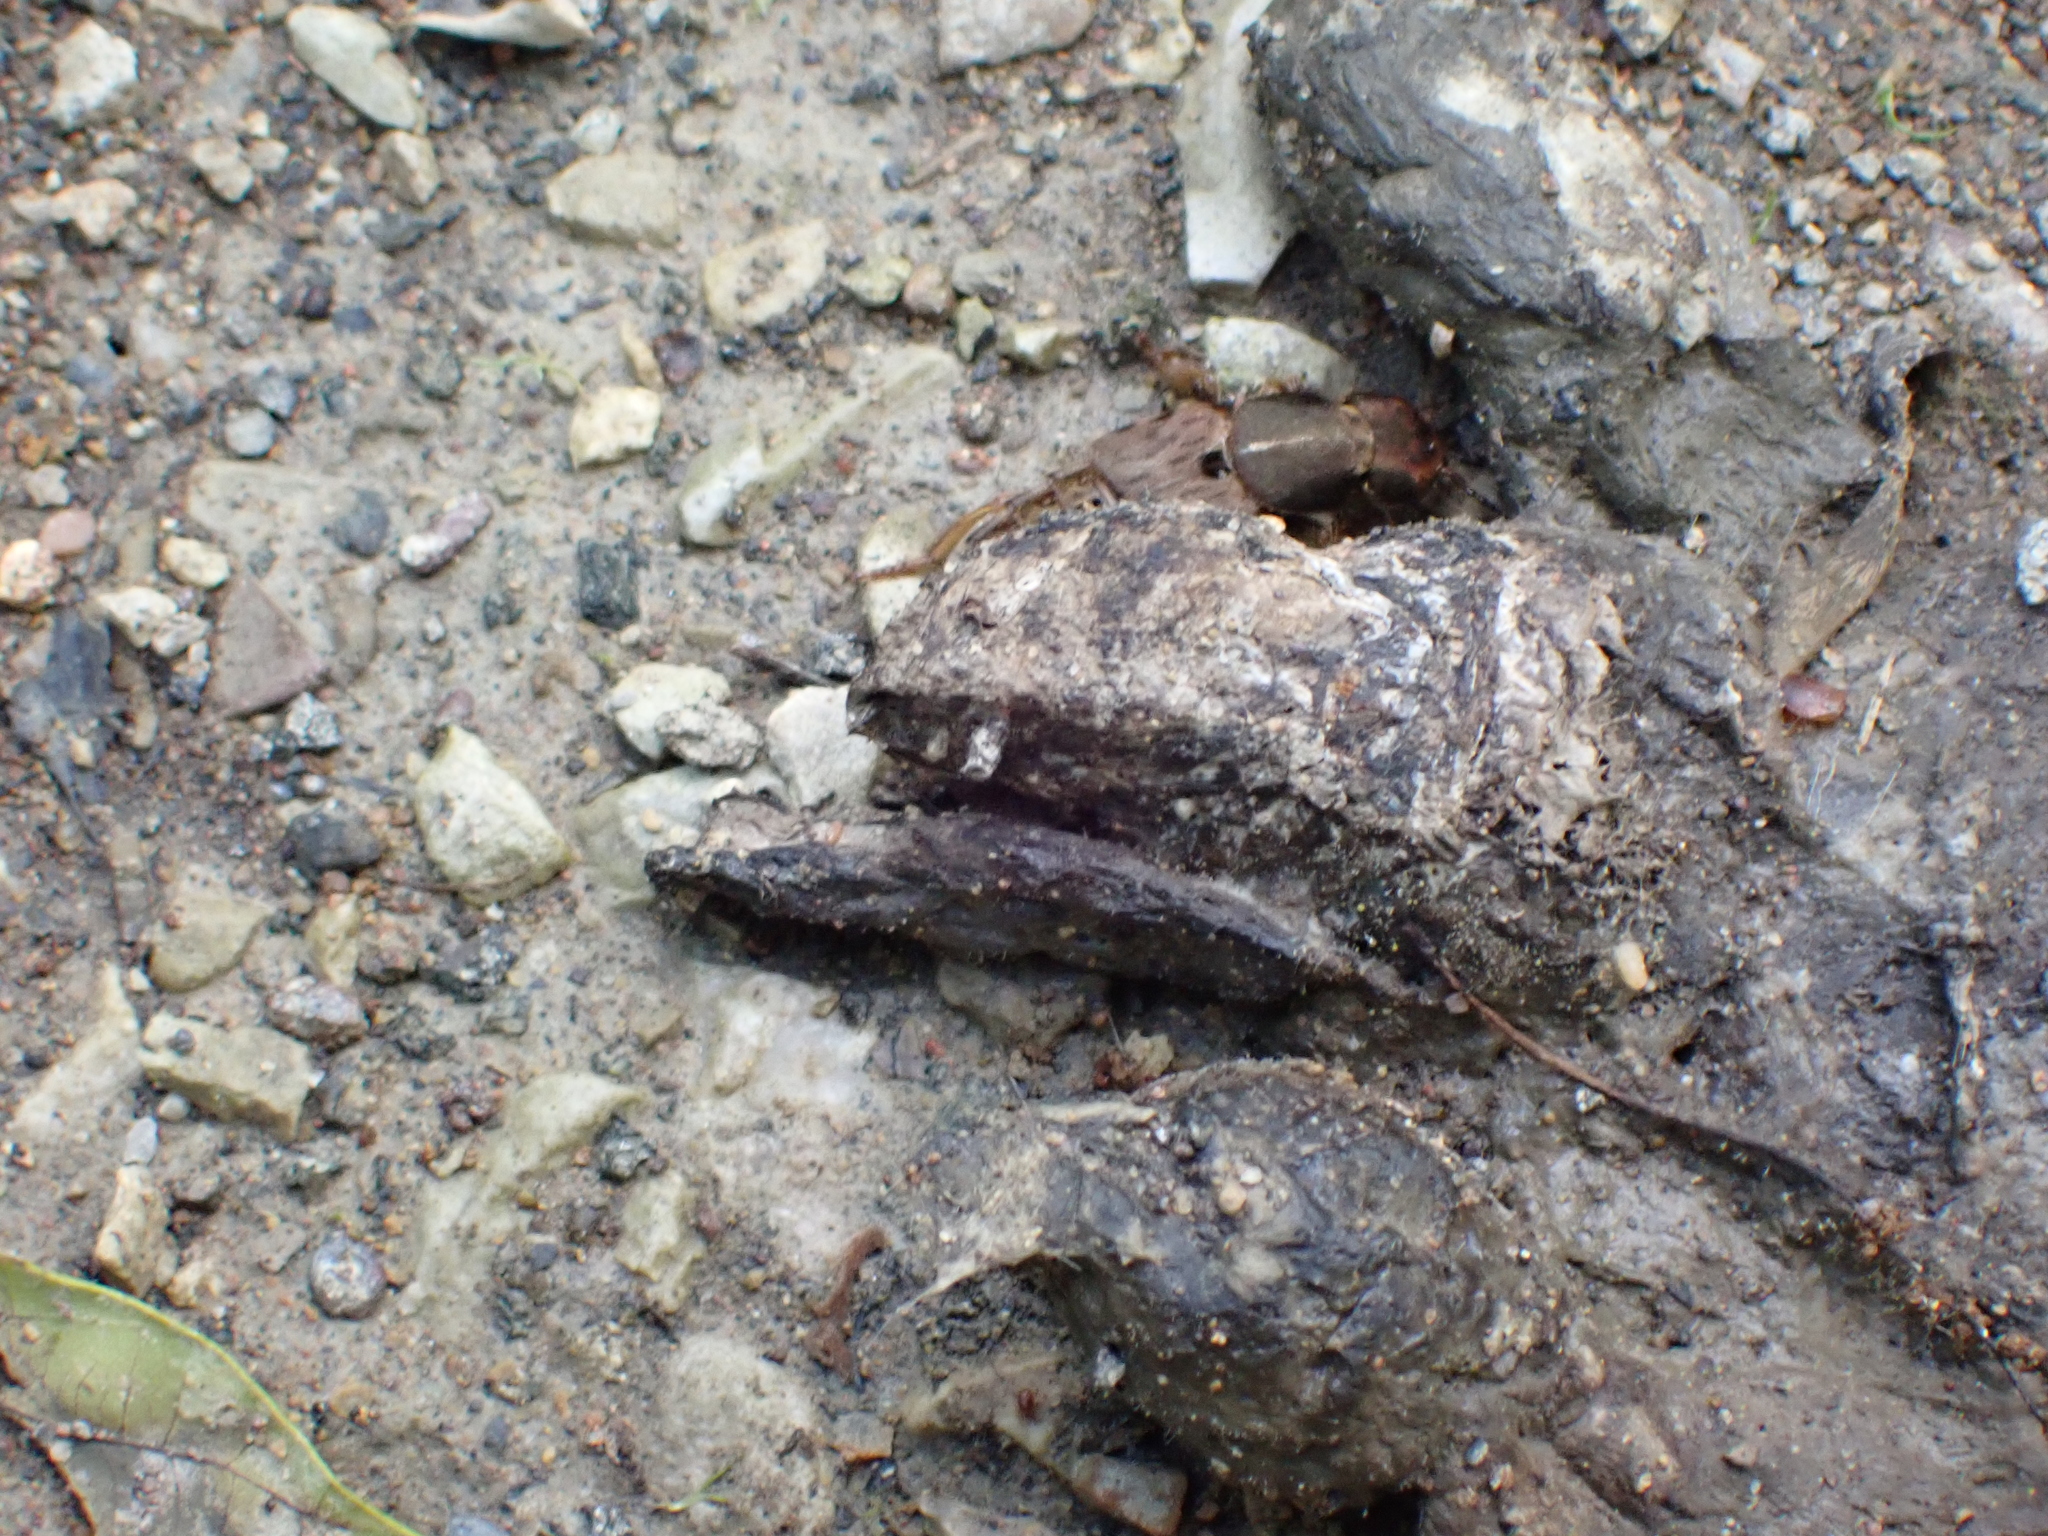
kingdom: Animalia
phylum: Arthropoda
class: Insecta
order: Coleoptera
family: Staphylinidae
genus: Platydracus
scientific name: Platydracus maculosus
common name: Brown rove beetle
